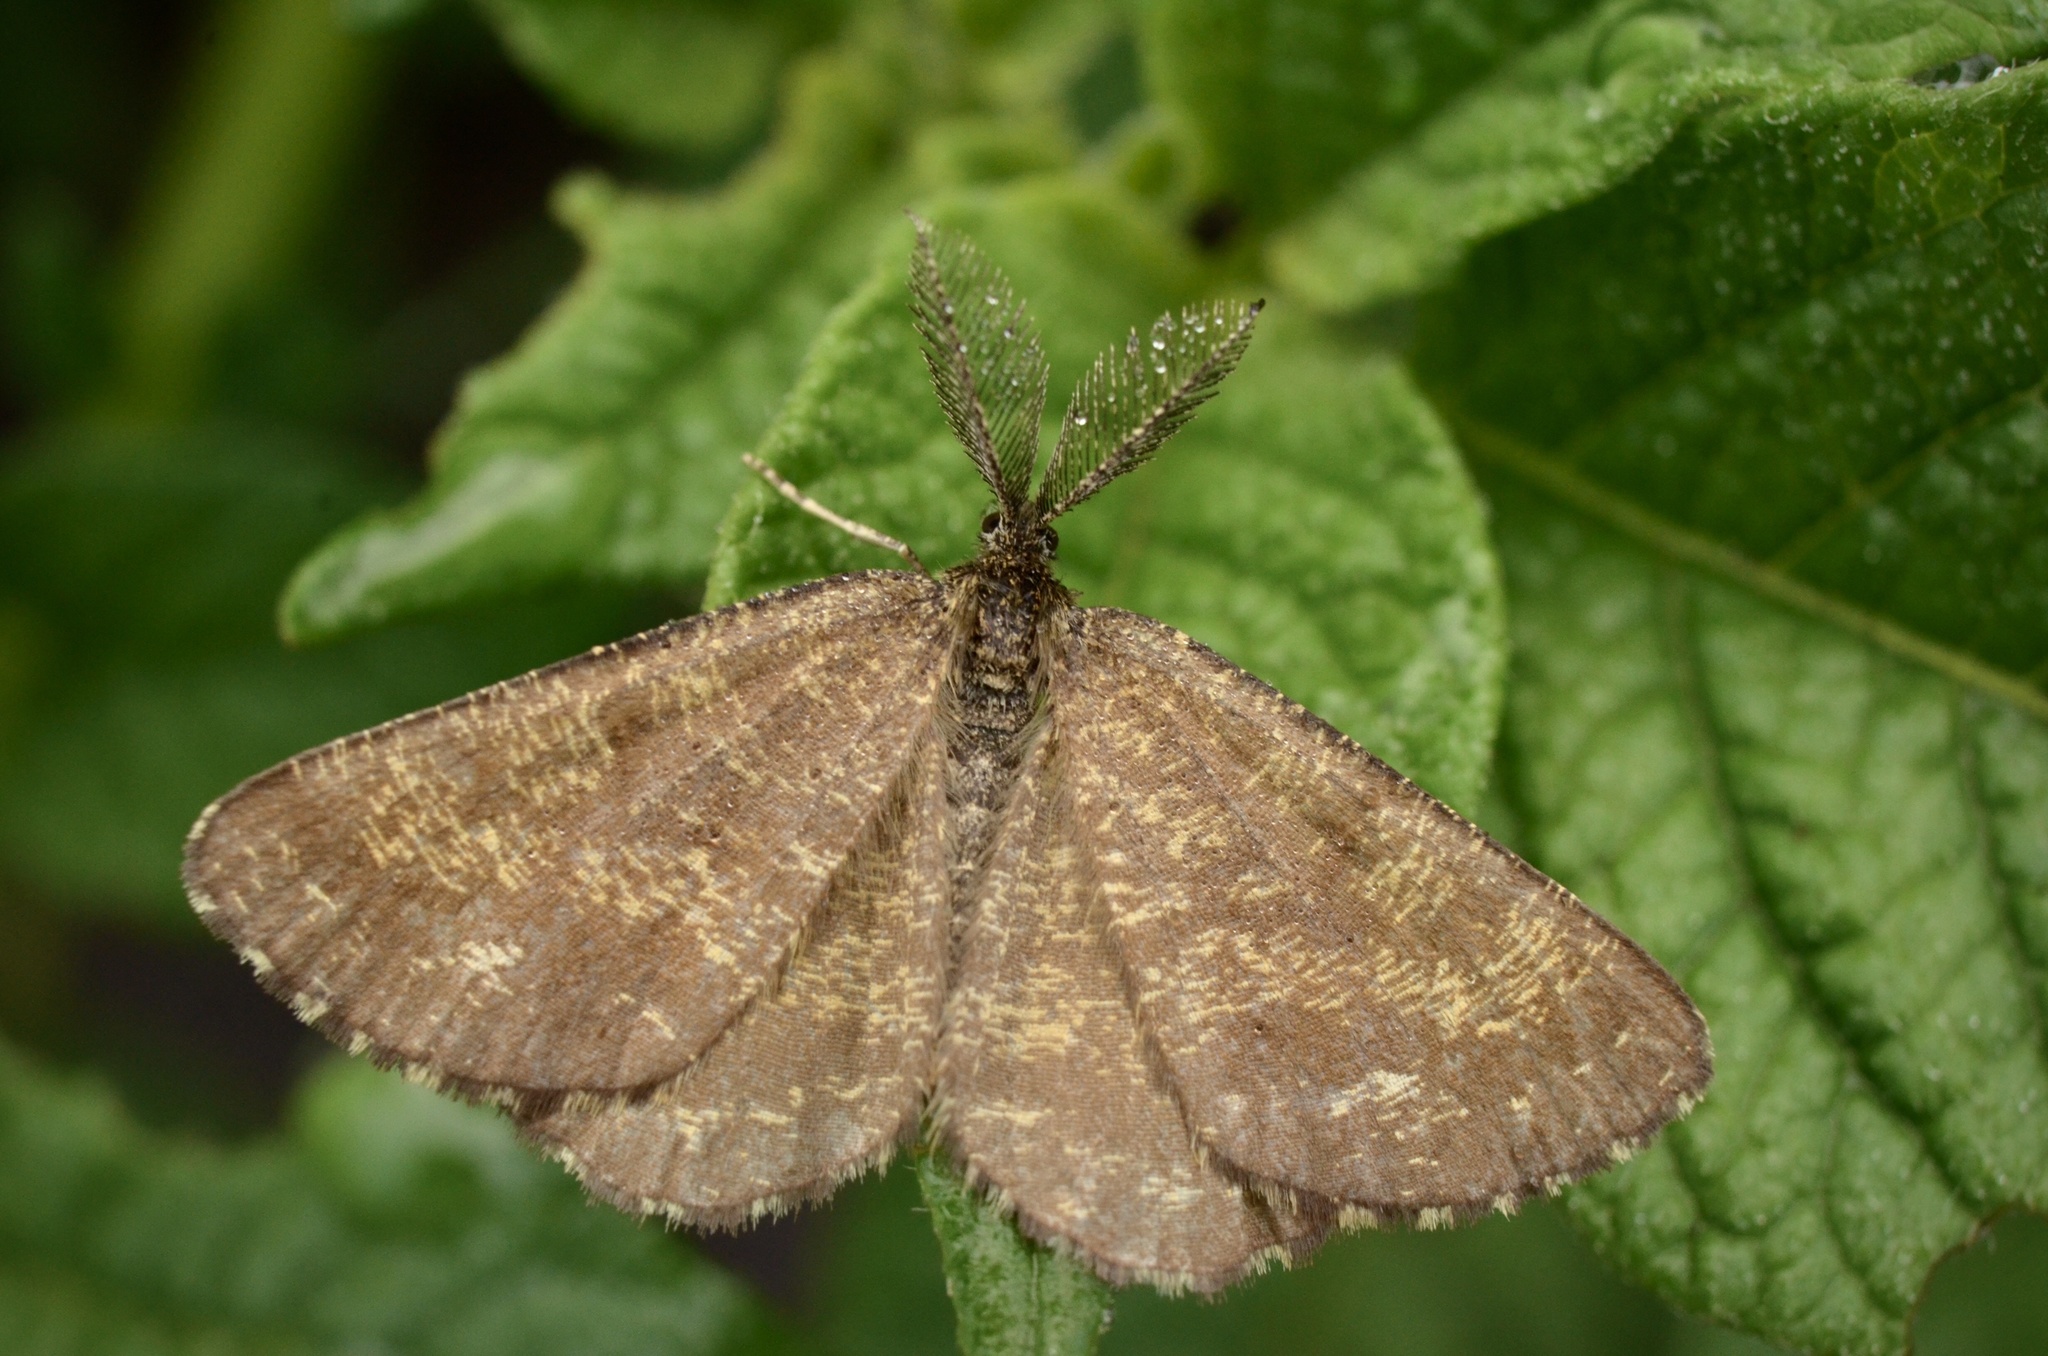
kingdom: Animalia
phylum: Arthropoda
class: Insecta
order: Lepidoptera
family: Geometridae
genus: Ematurga
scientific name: Ematurga atomaria
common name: Common heath
